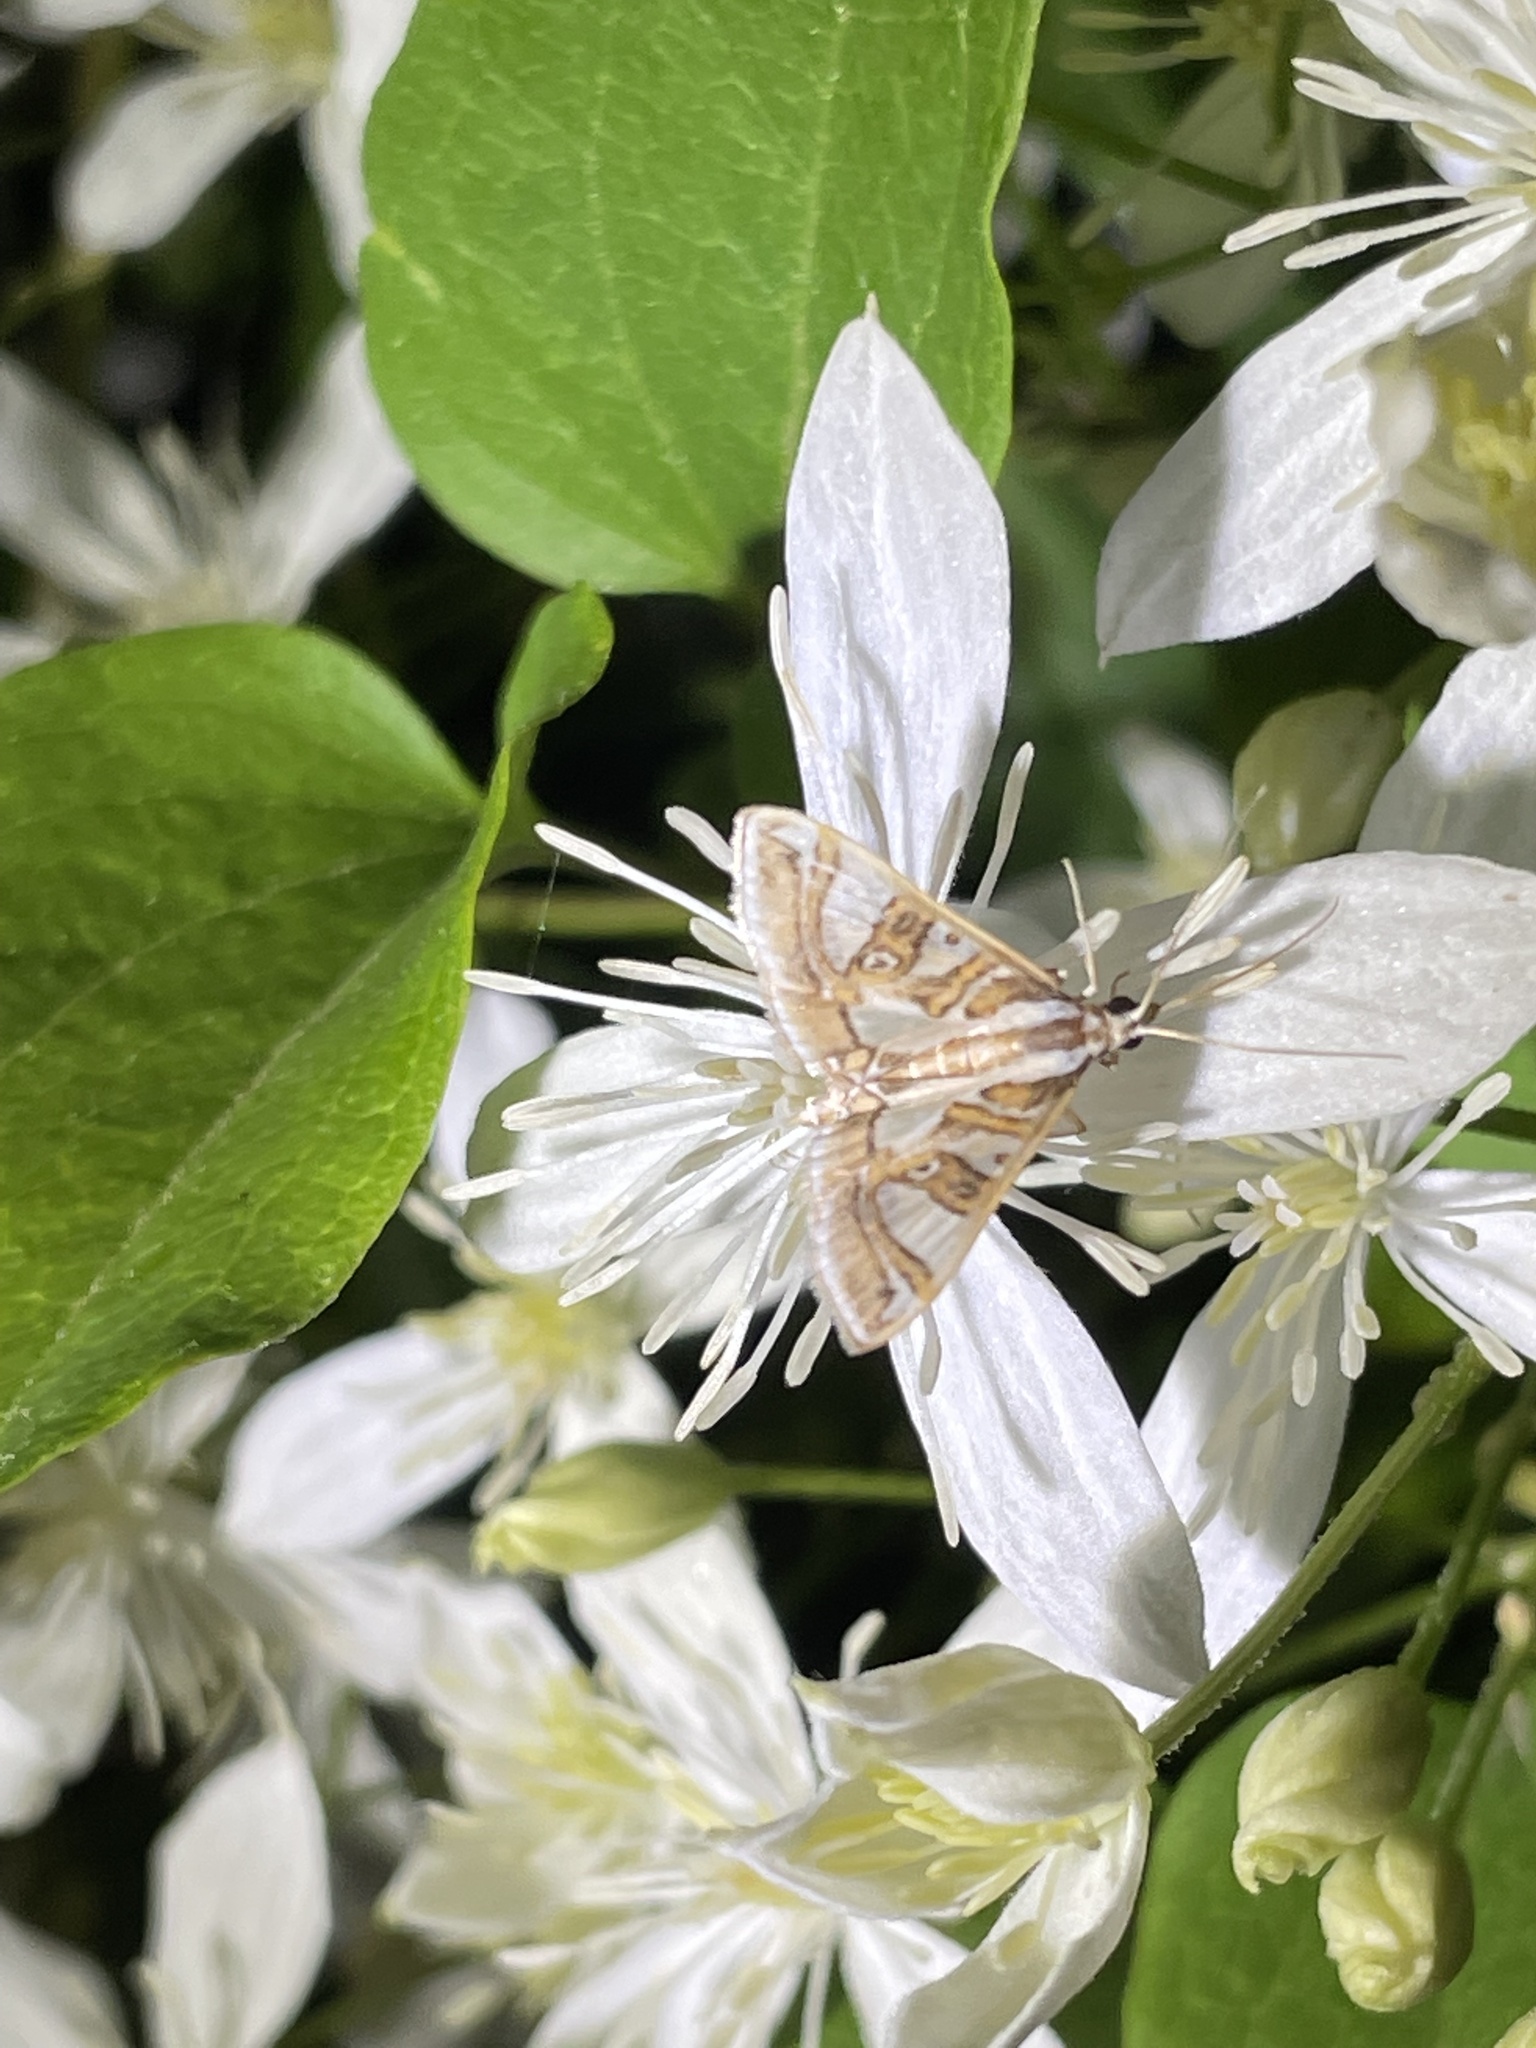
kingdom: Animalia
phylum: Arthropoda
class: Insecta
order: Lepidoptera
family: Crambidae
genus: Glyphodes
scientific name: Glyphodes pyloalis
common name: Lesser mulberry snout moth
